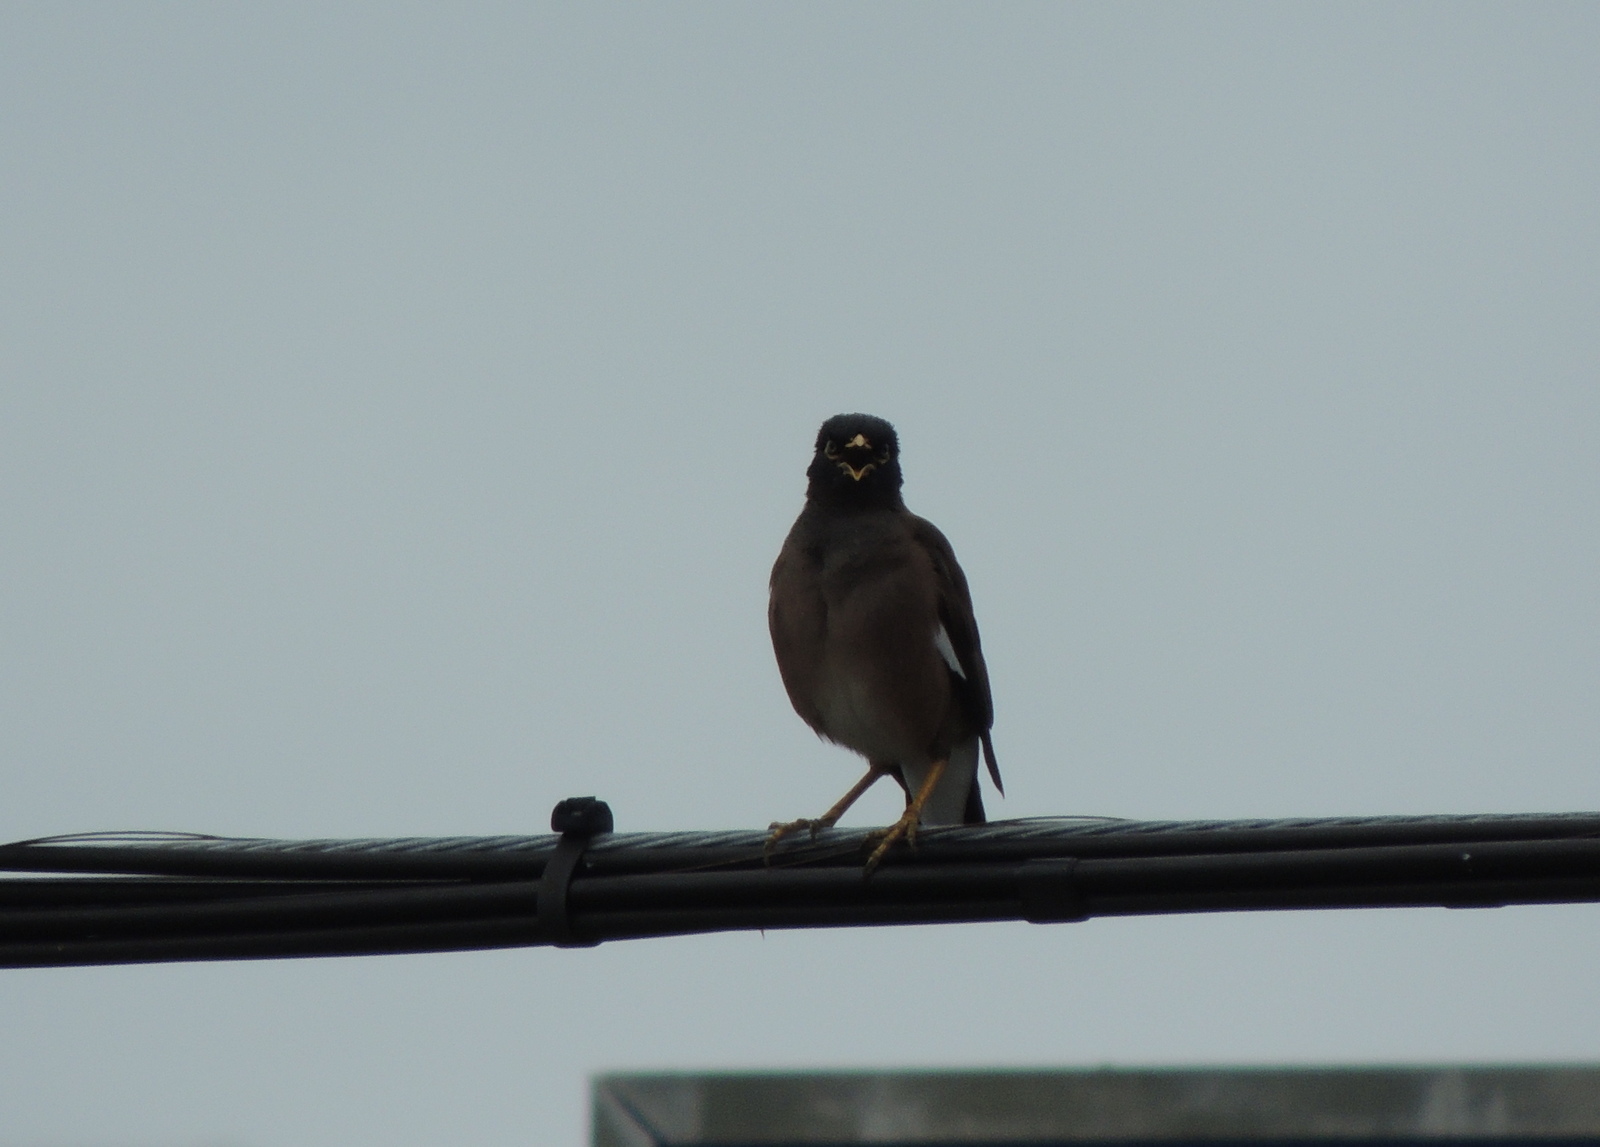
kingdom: Animalia
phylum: Chordata
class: Aves
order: Passeriformes
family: Sturnidae
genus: Acridotheres
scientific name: Acridotheres tristis
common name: Common myna
